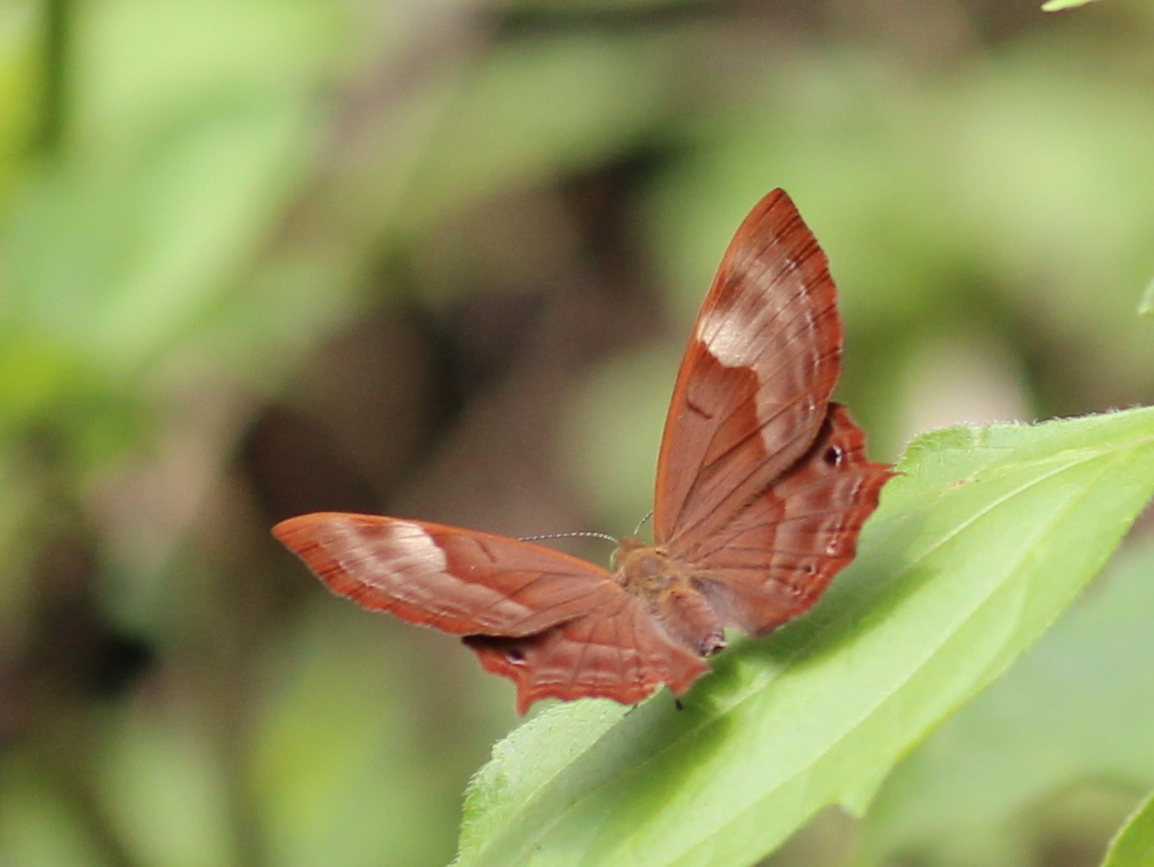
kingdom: Animalia
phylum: Arthropoda
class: Insecta
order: Lepidoptera
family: Lycaenidae
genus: Abisara
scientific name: Abisara bifasciata
